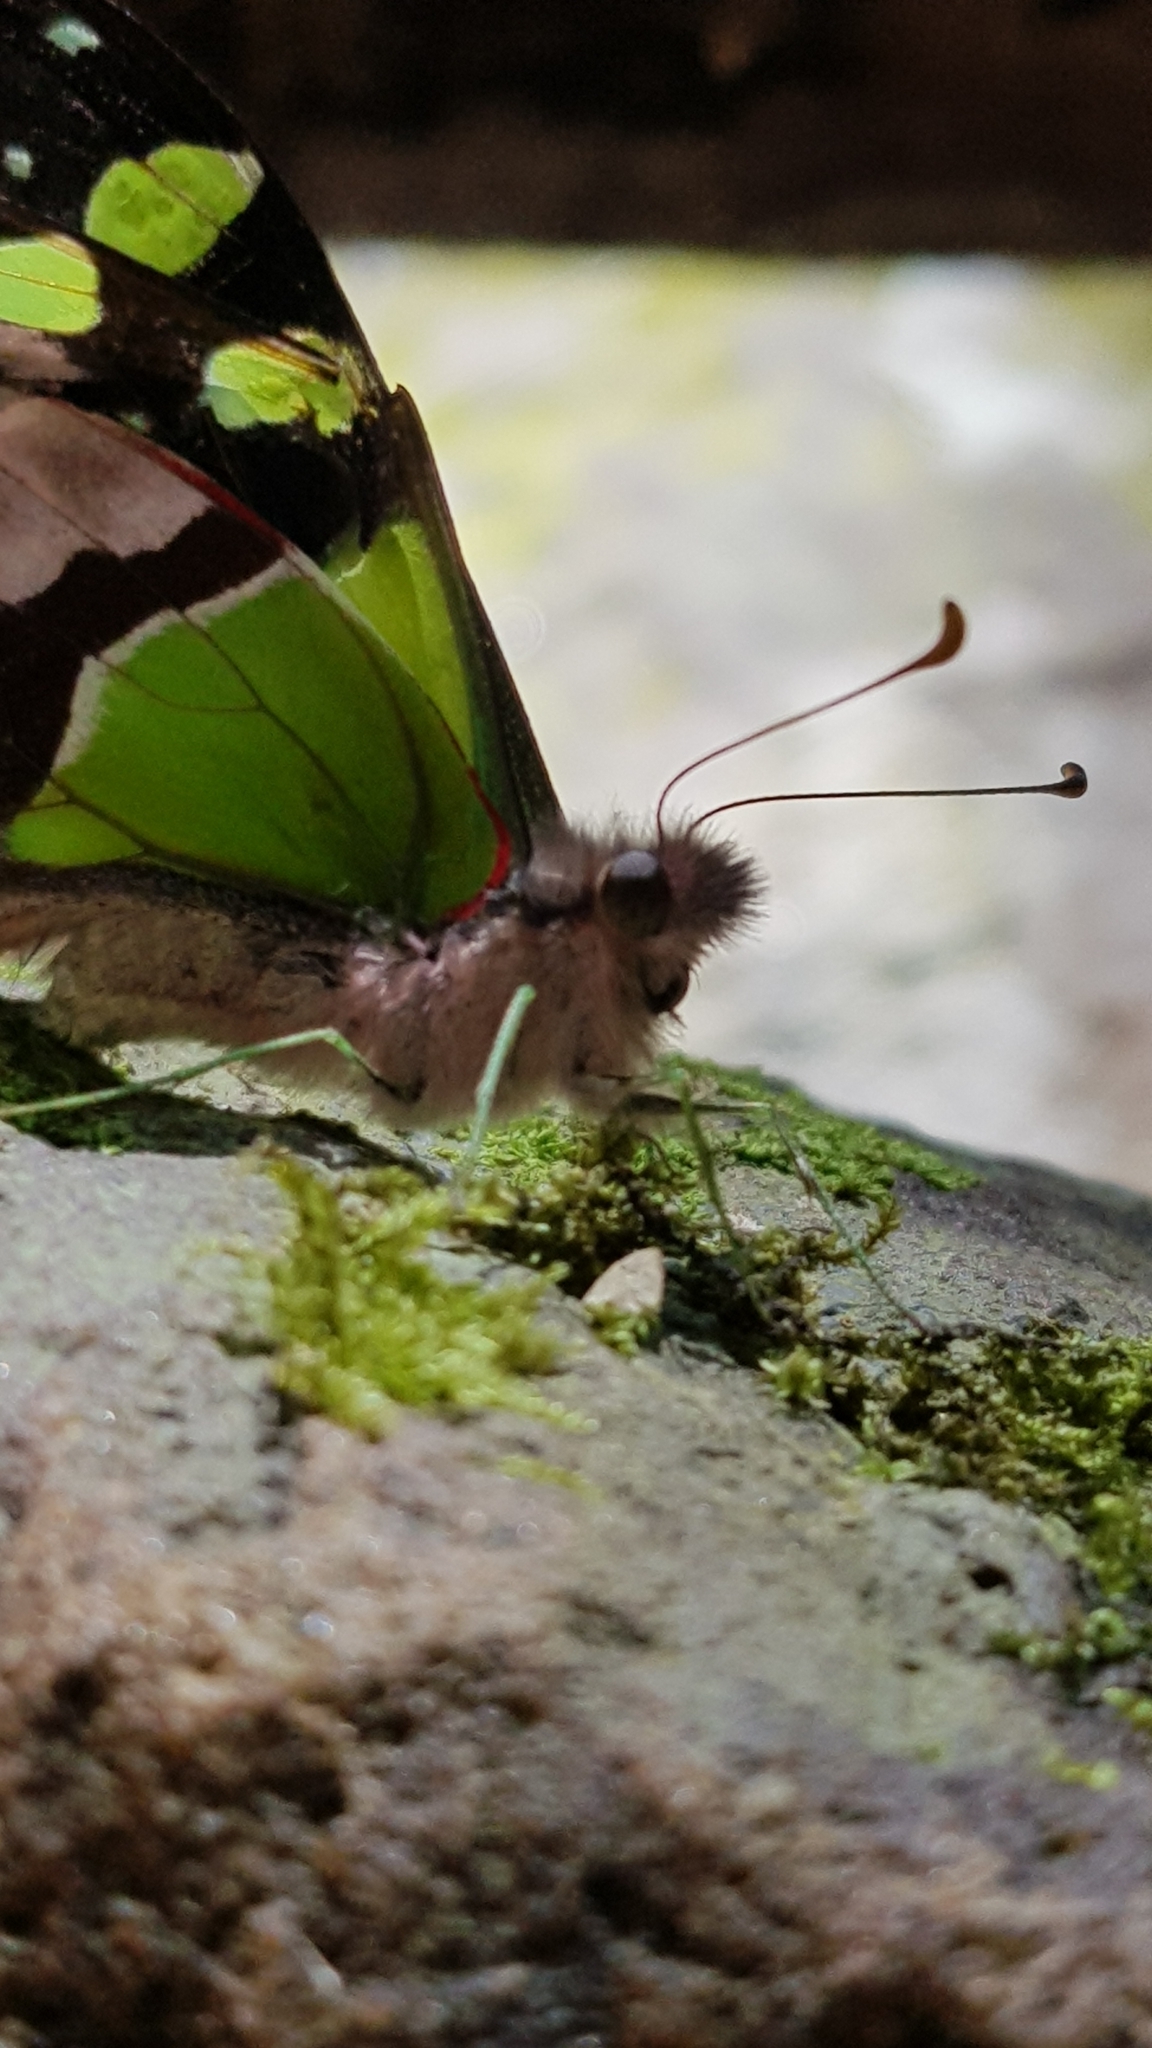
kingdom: Animalia
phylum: Arthropoda
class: Insecta
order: Lepidoptera
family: Papilionidae
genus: Graphium
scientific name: Graphium macleayanus
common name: Macleay's swallowtail
